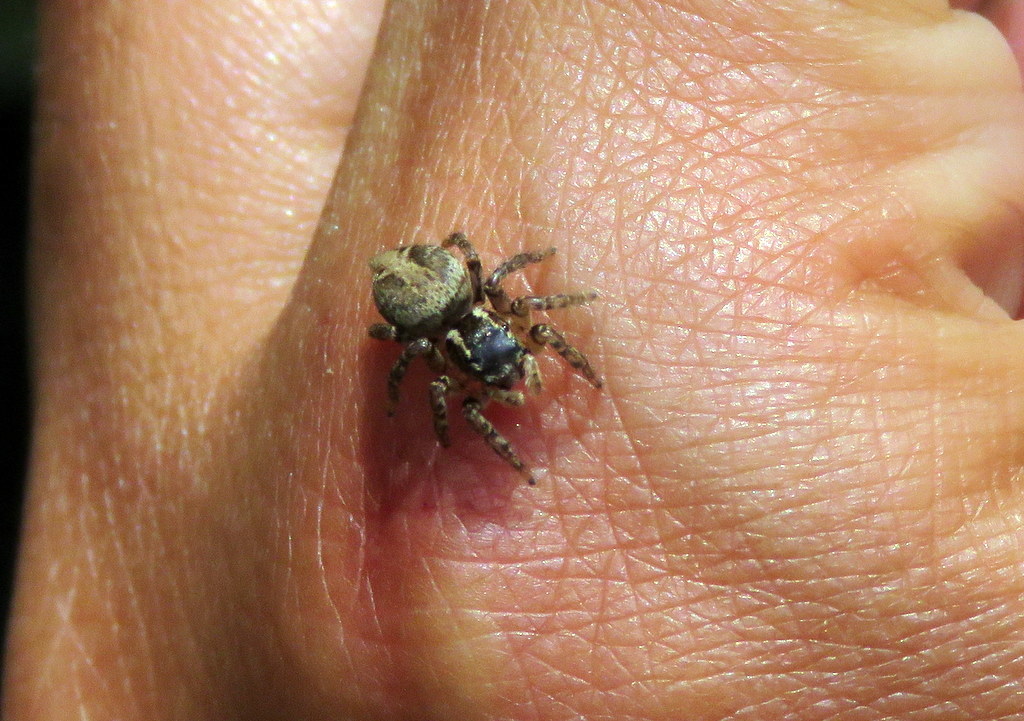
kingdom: Animalia
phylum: Arthropoda
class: Arachnida
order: Araneae
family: Salticidae
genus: Aphirape
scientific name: Aphirape
